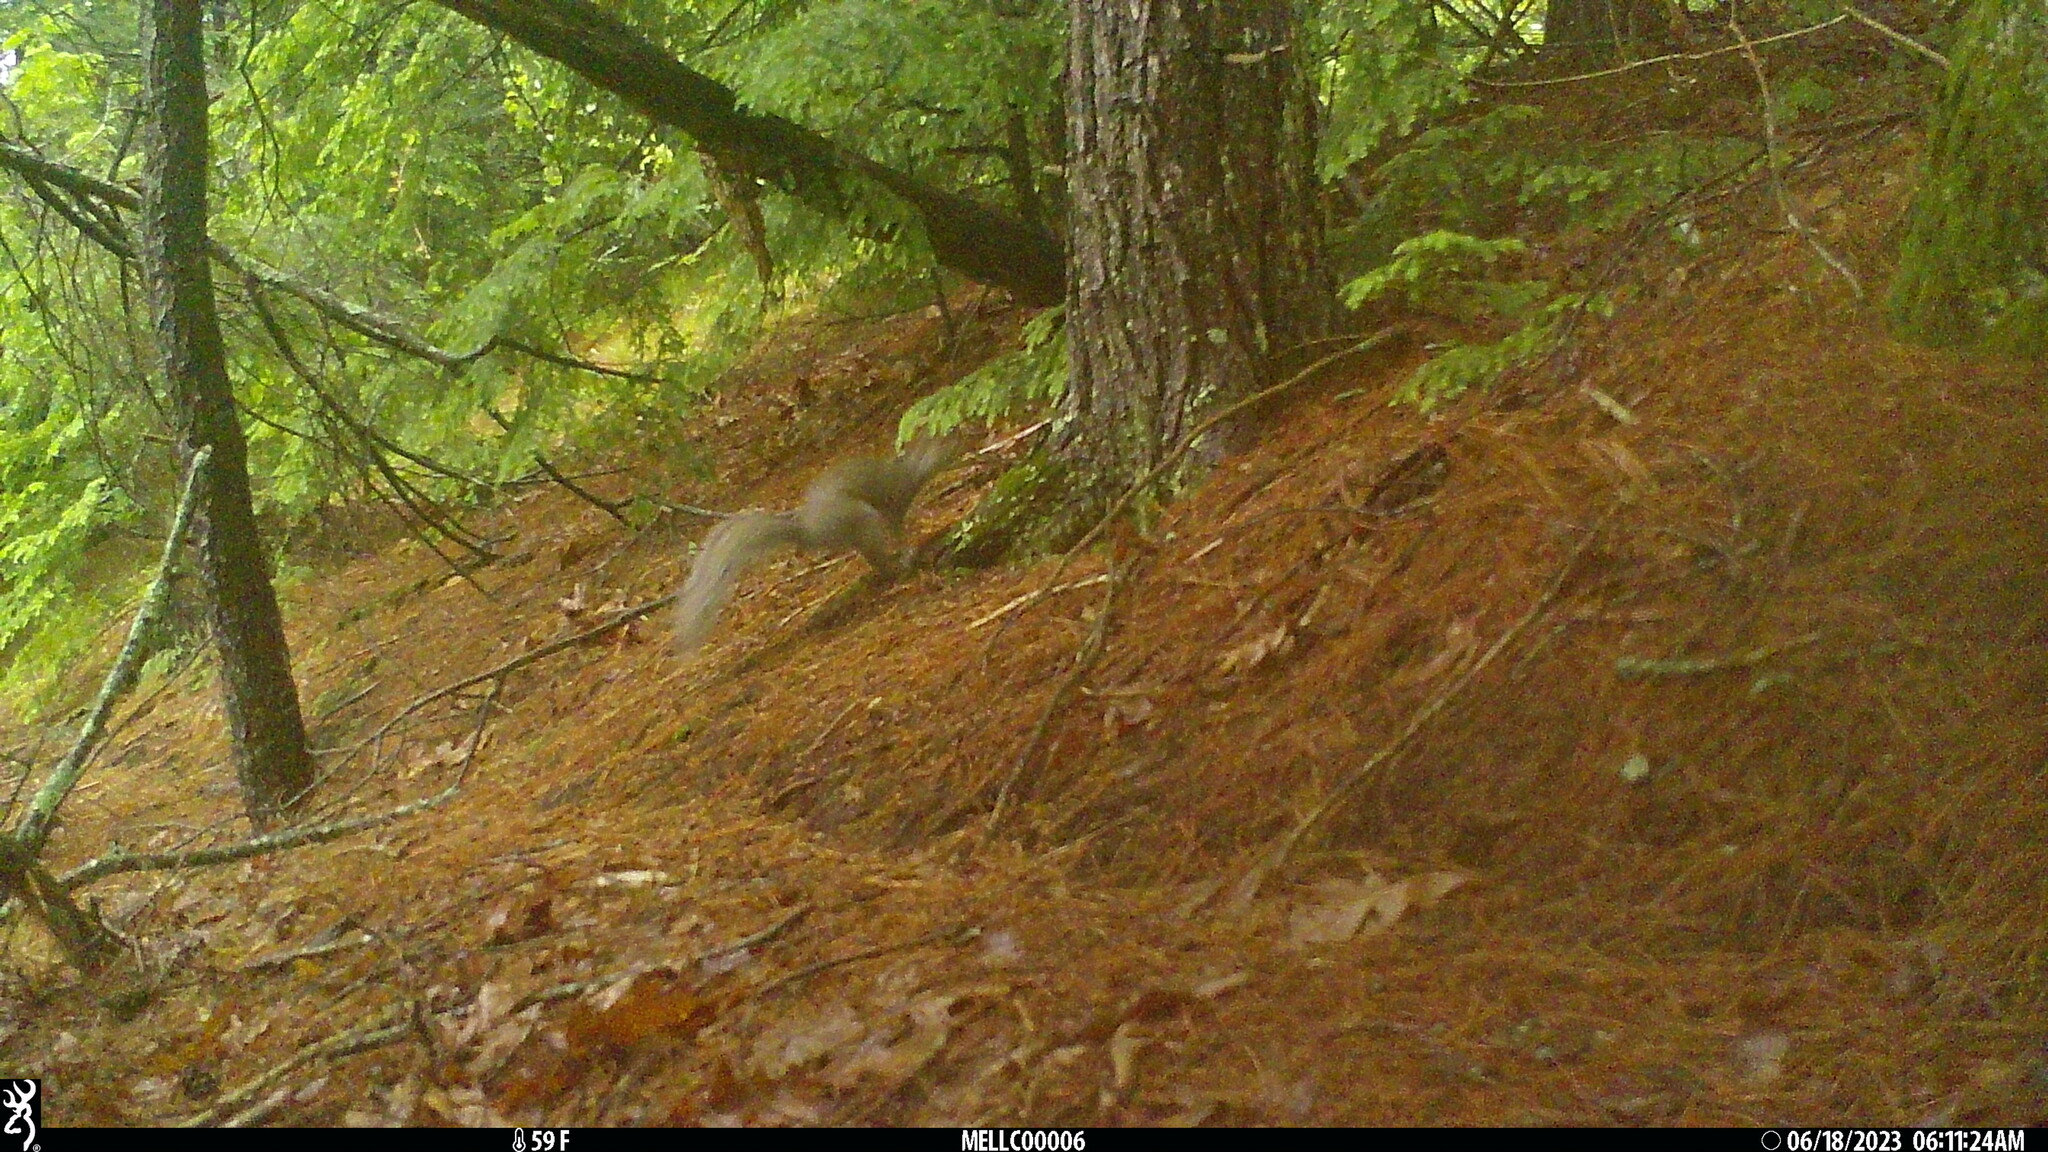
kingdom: Animalia
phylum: Chordata
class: Mammalia
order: Rodentia
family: Sciuridae
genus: Sciurus
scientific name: Sciurus carolinensis
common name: Eastern gray squirrel
